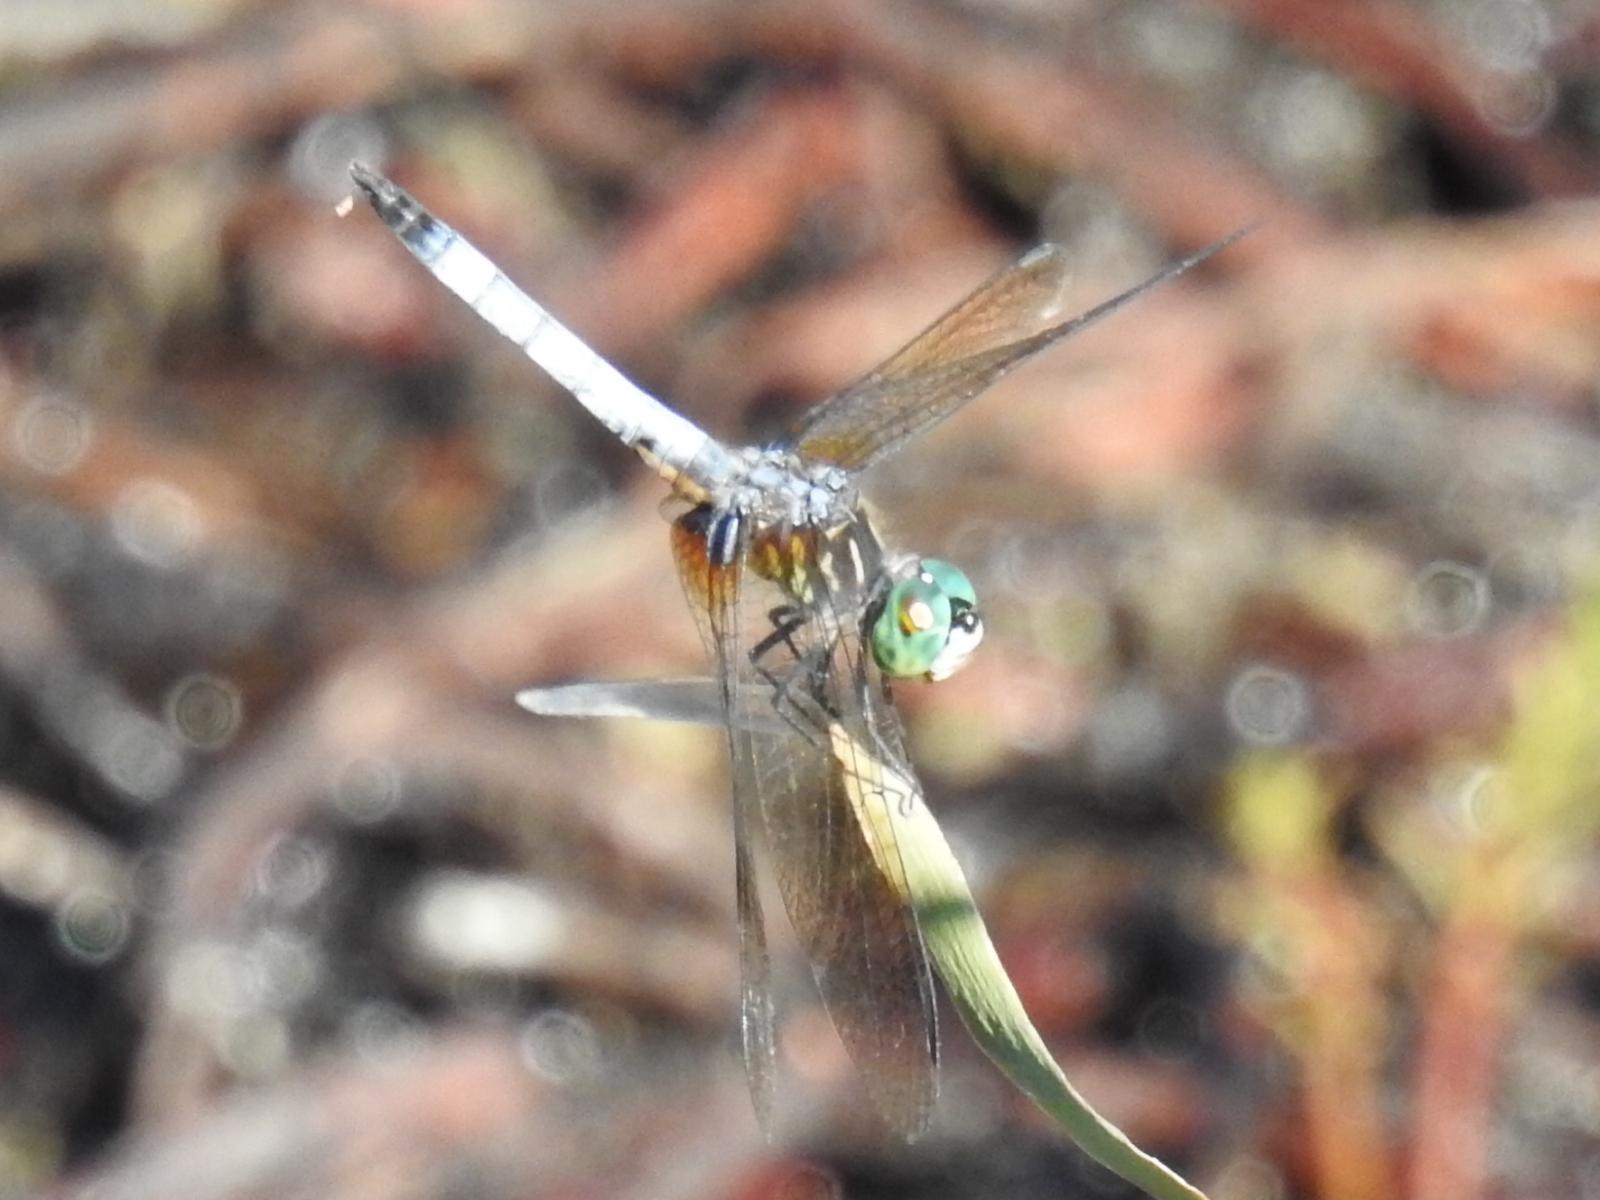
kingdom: Animalia
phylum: Arthropoda
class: Insecta
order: Odonata
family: Libellulidae
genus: Pachydiplax
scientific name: Pachydiplax longipennis
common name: Blue dasher
